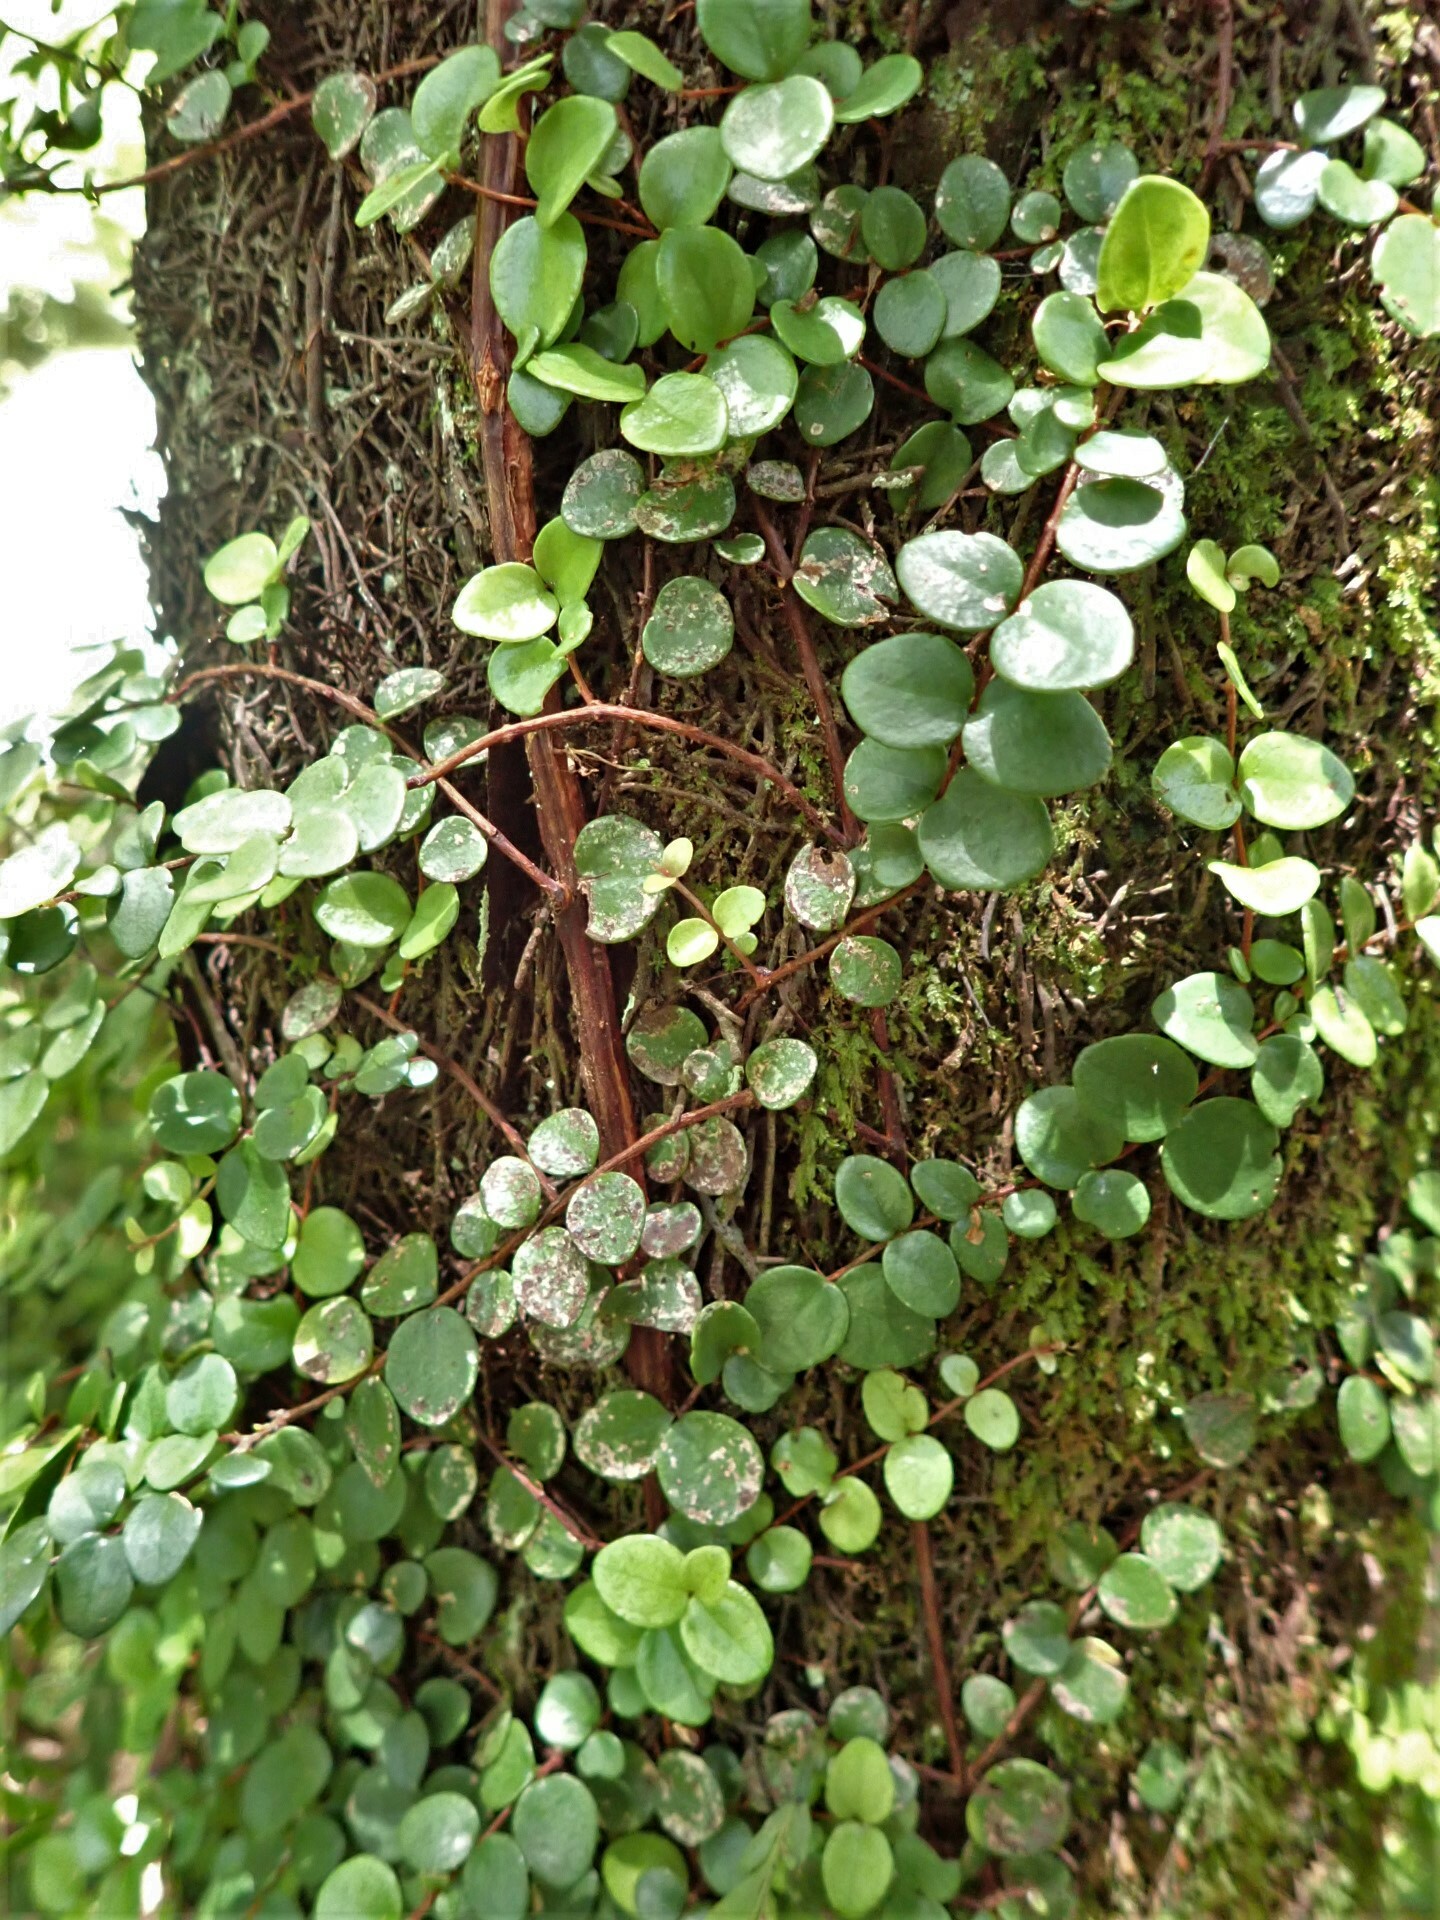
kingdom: Plantae
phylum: Tracheophyta
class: Magnoliopsida
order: Myrtales
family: Myrtaceae
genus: Metrosideros
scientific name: Metrosideros perforata
